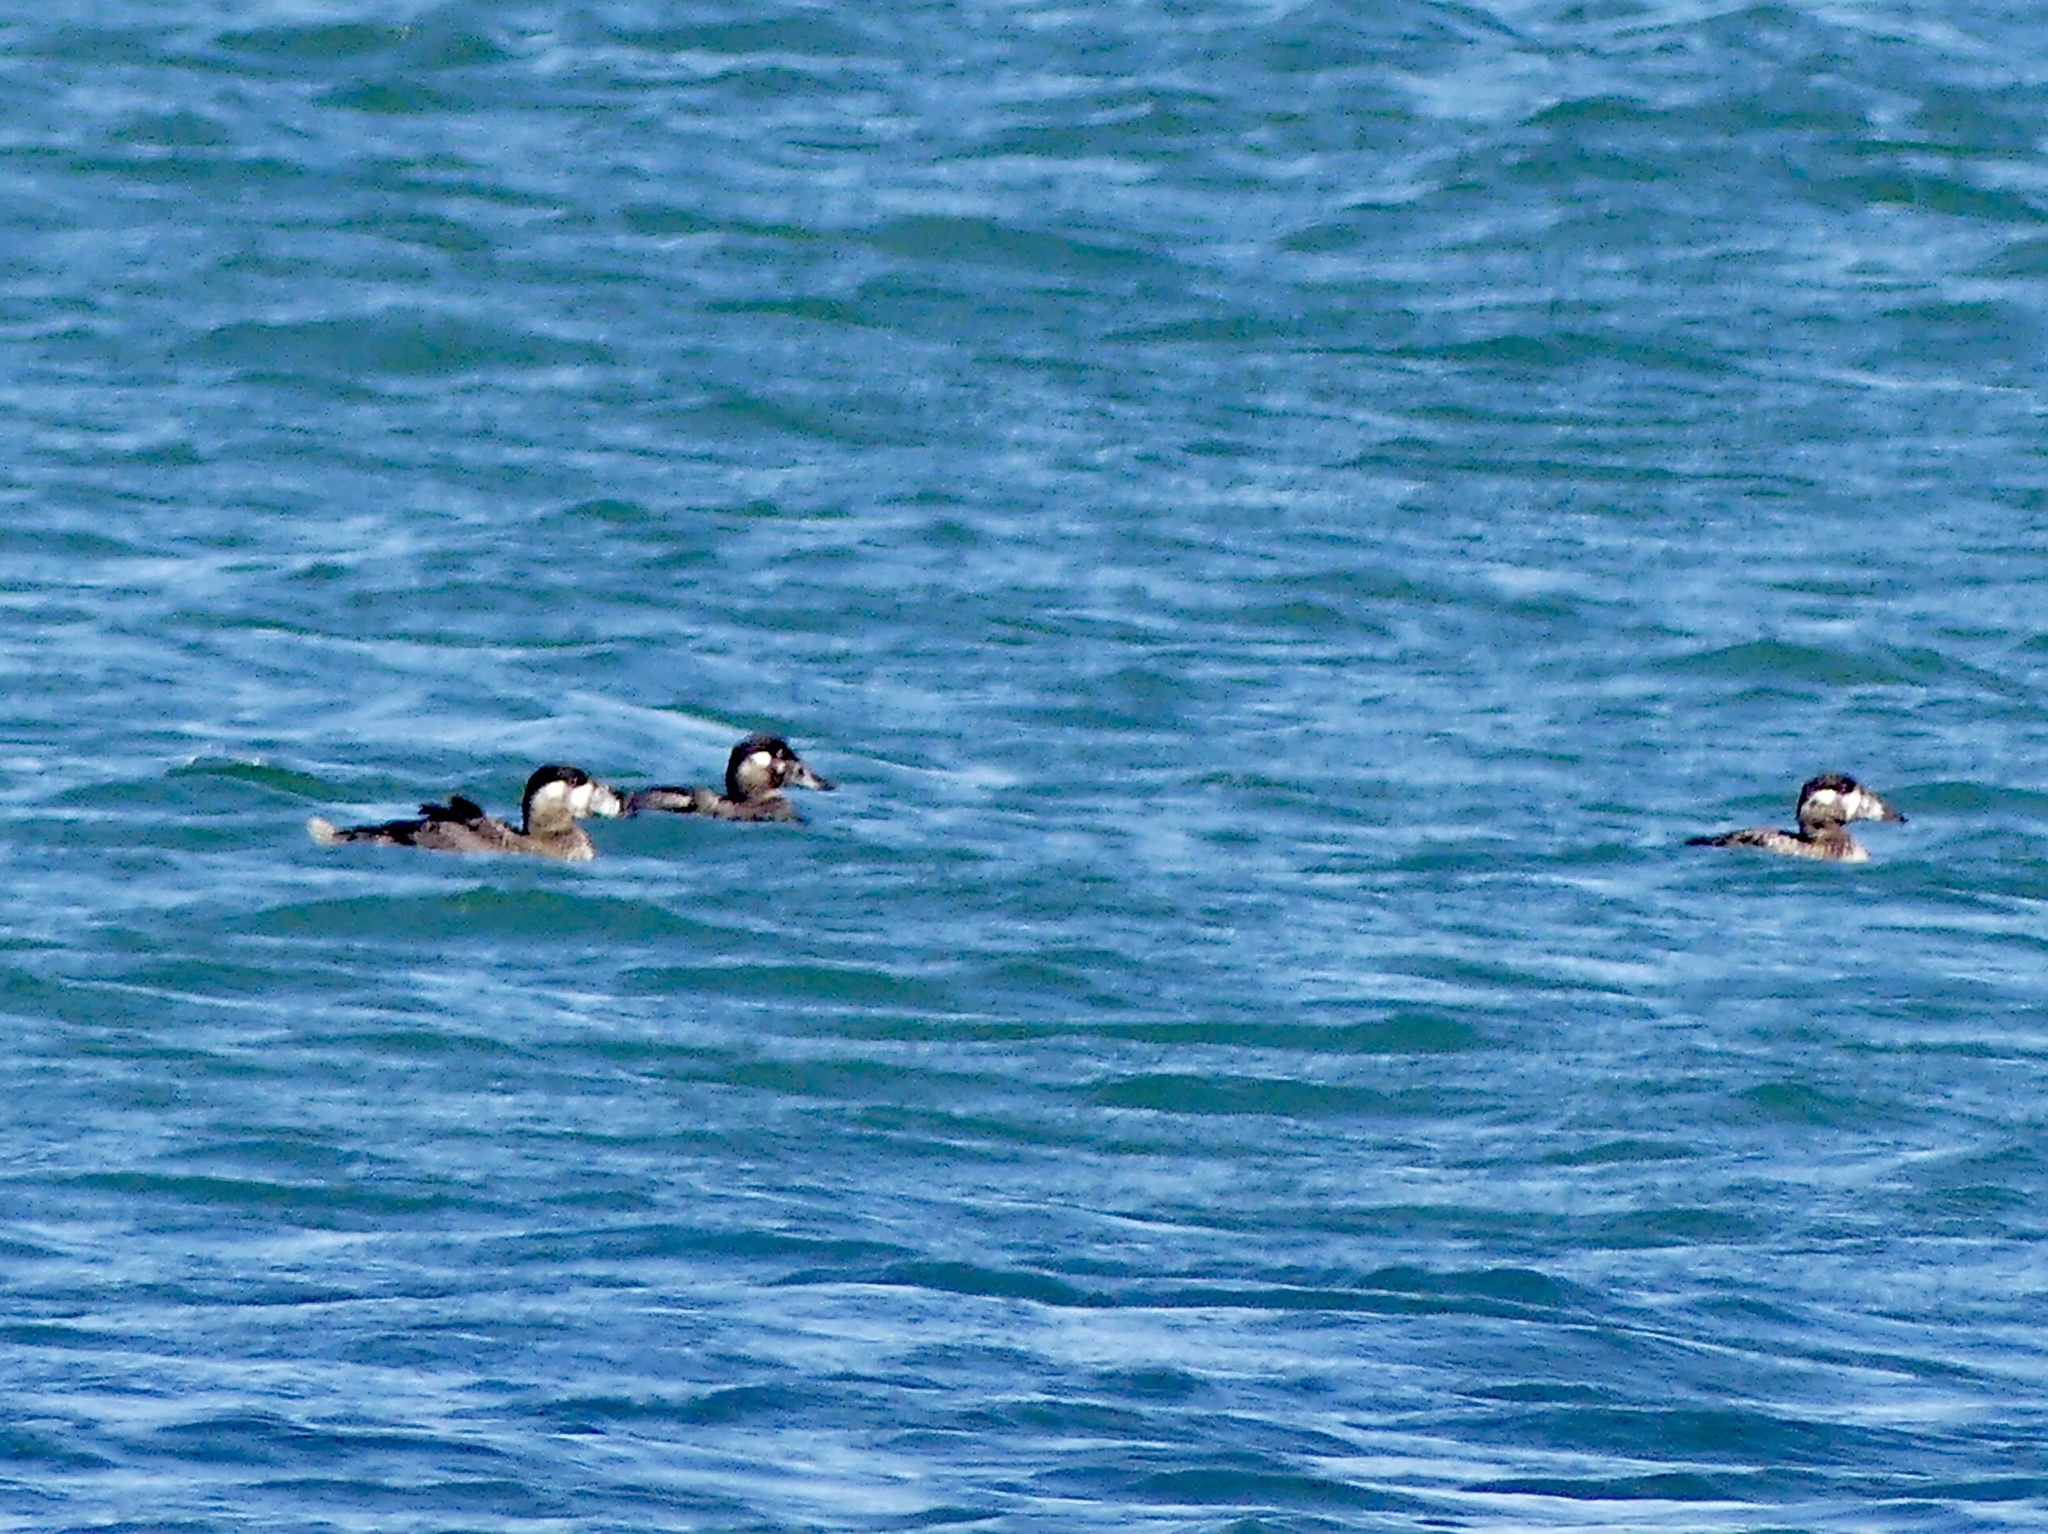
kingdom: Animalia
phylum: Chordata
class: Aves
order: Anseriformes
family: Anatidae
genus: Melanitta
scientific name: Melanitta perspicillata
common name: Surf scoter
